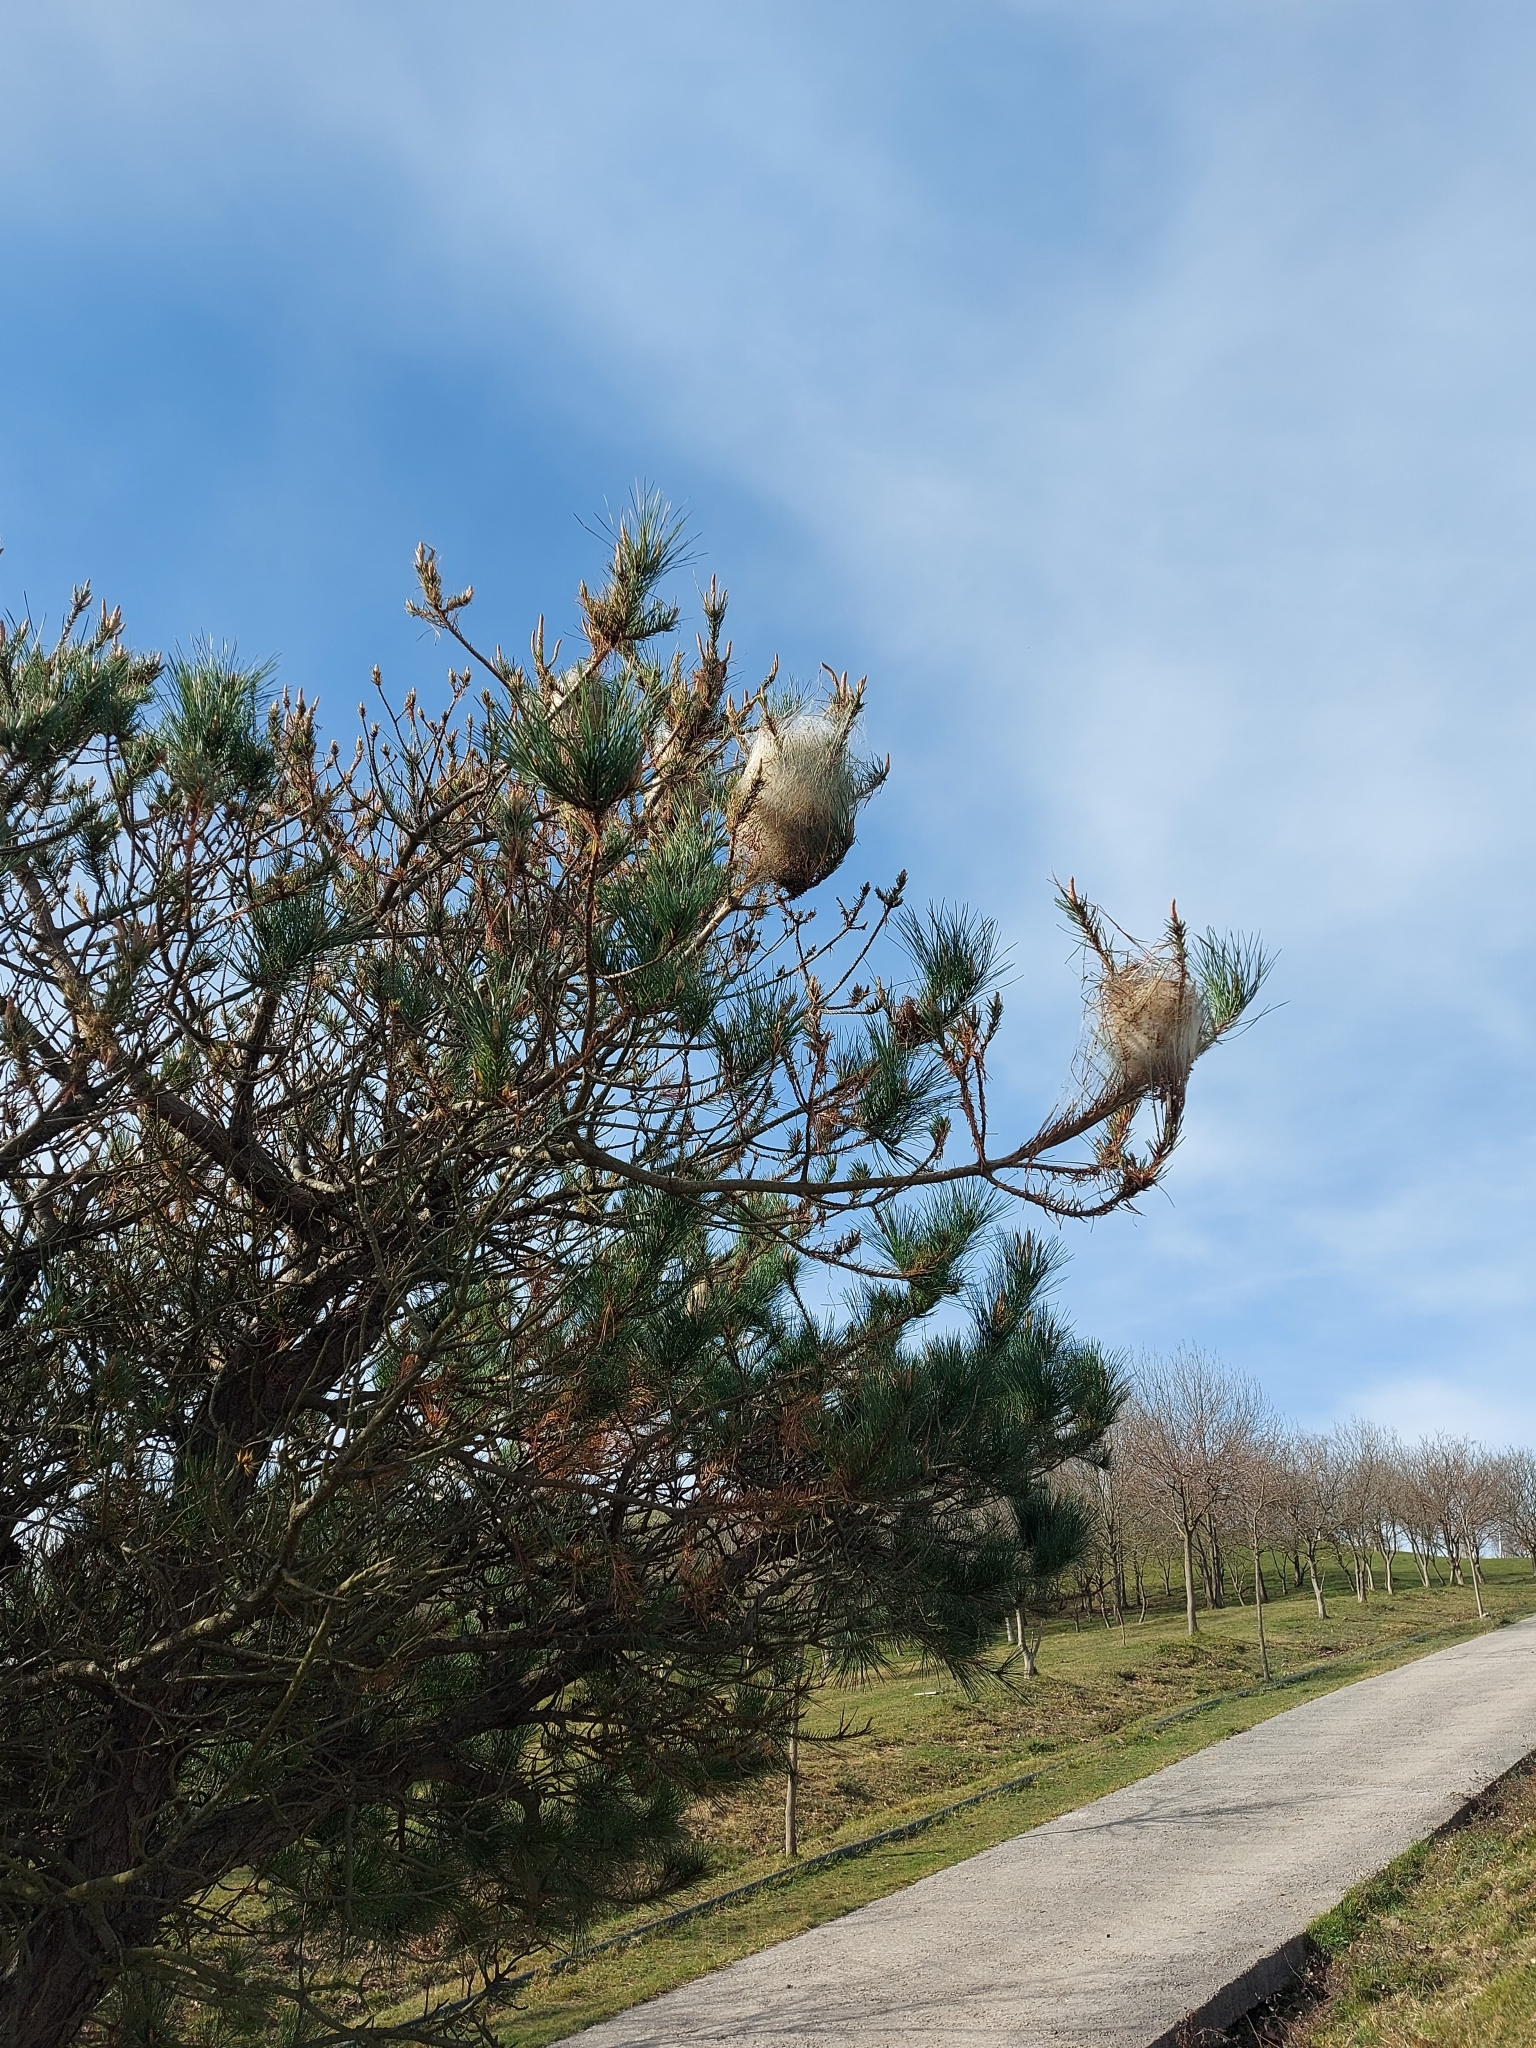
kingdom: Animalia
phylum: Arthropoda
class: Insecta
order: Lepidoptera
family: Notodontidae
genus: Thaumetopoea
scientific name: Thaumetopoea pityocampa
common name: Pine processionary
